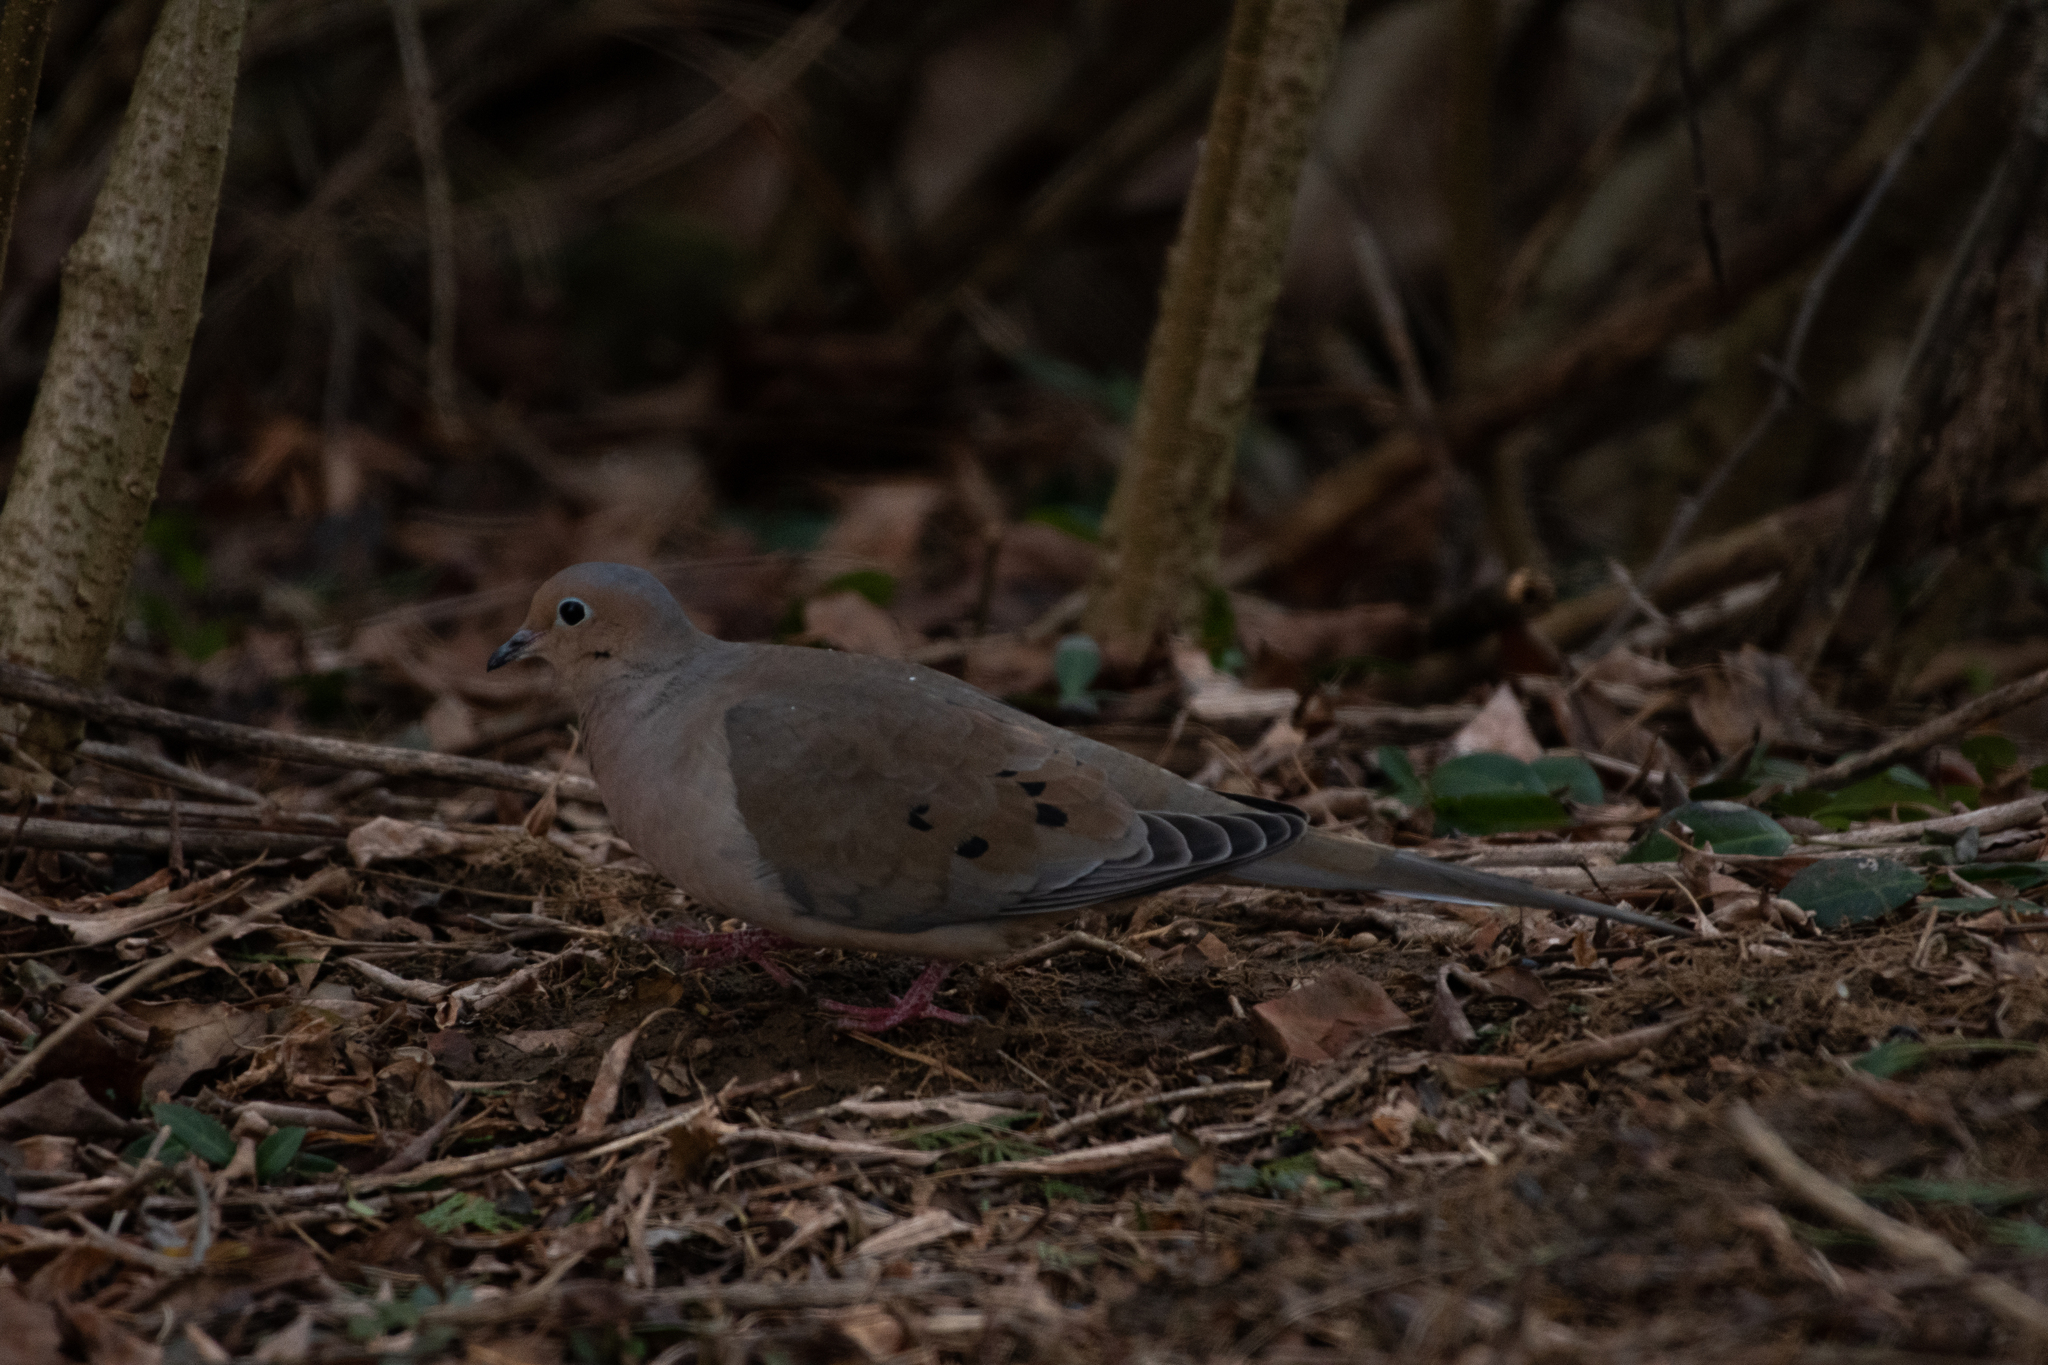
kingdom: Animalia
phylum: Chordata
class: Aves
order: Columbiformes
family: Columbidae
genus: Zenaida
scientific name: Zenaida macroura
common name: Mourning dove
